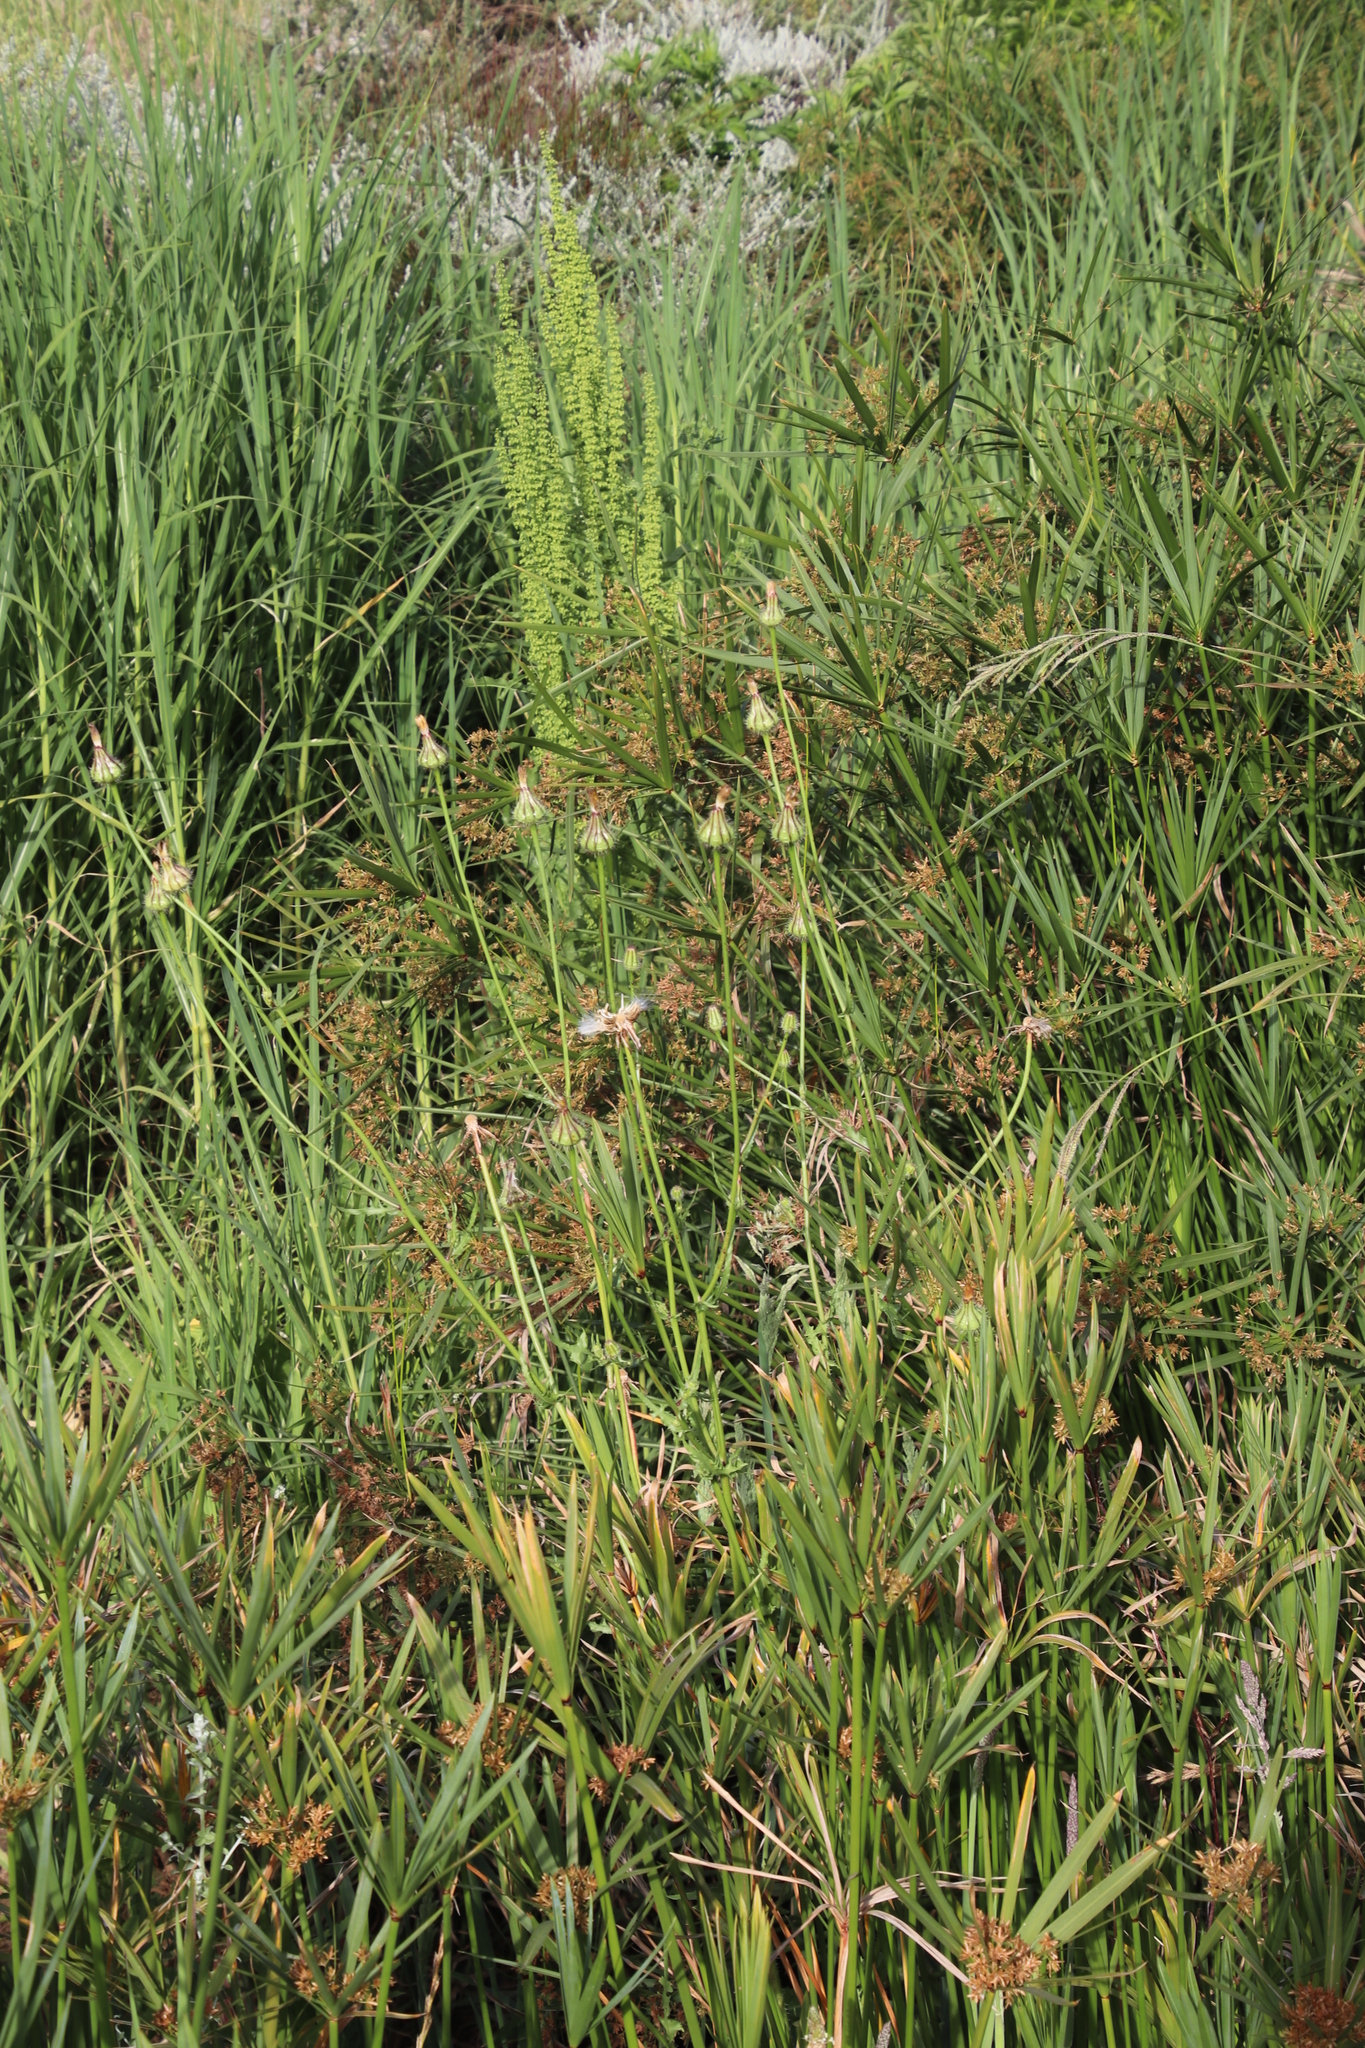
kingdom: Plantae
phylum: Tracheophyta
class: Magnoliopsida
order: Asterales
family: Asteraceae
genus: Urospermum
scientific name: Urospermum picroides
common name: False hawkbit
